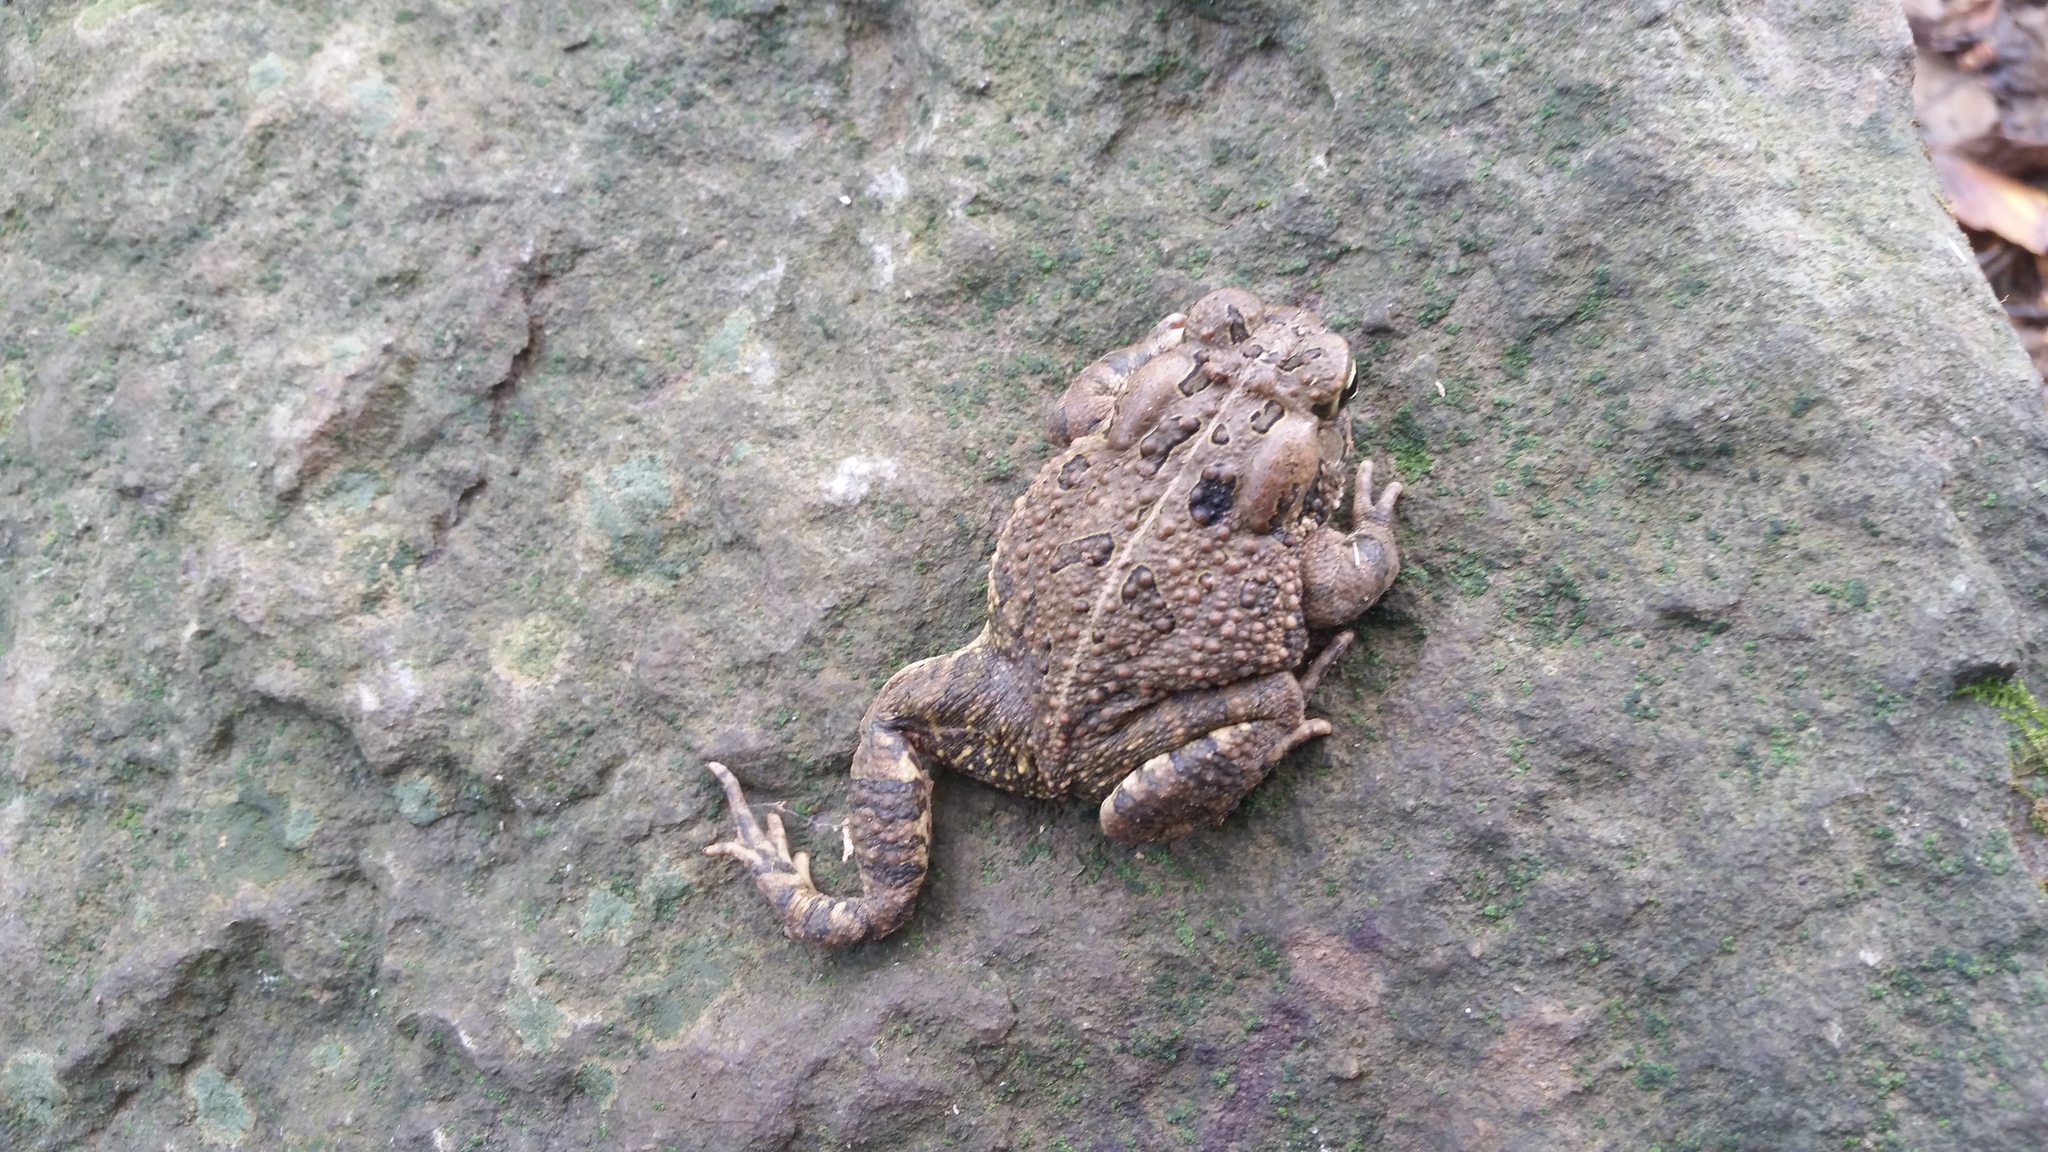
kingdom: Animalia
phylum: Chordata
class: Amphibia
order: Anura
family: Bufonidae
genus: Anaxyrus
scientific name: Anaxyrus americanus
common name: American toad
